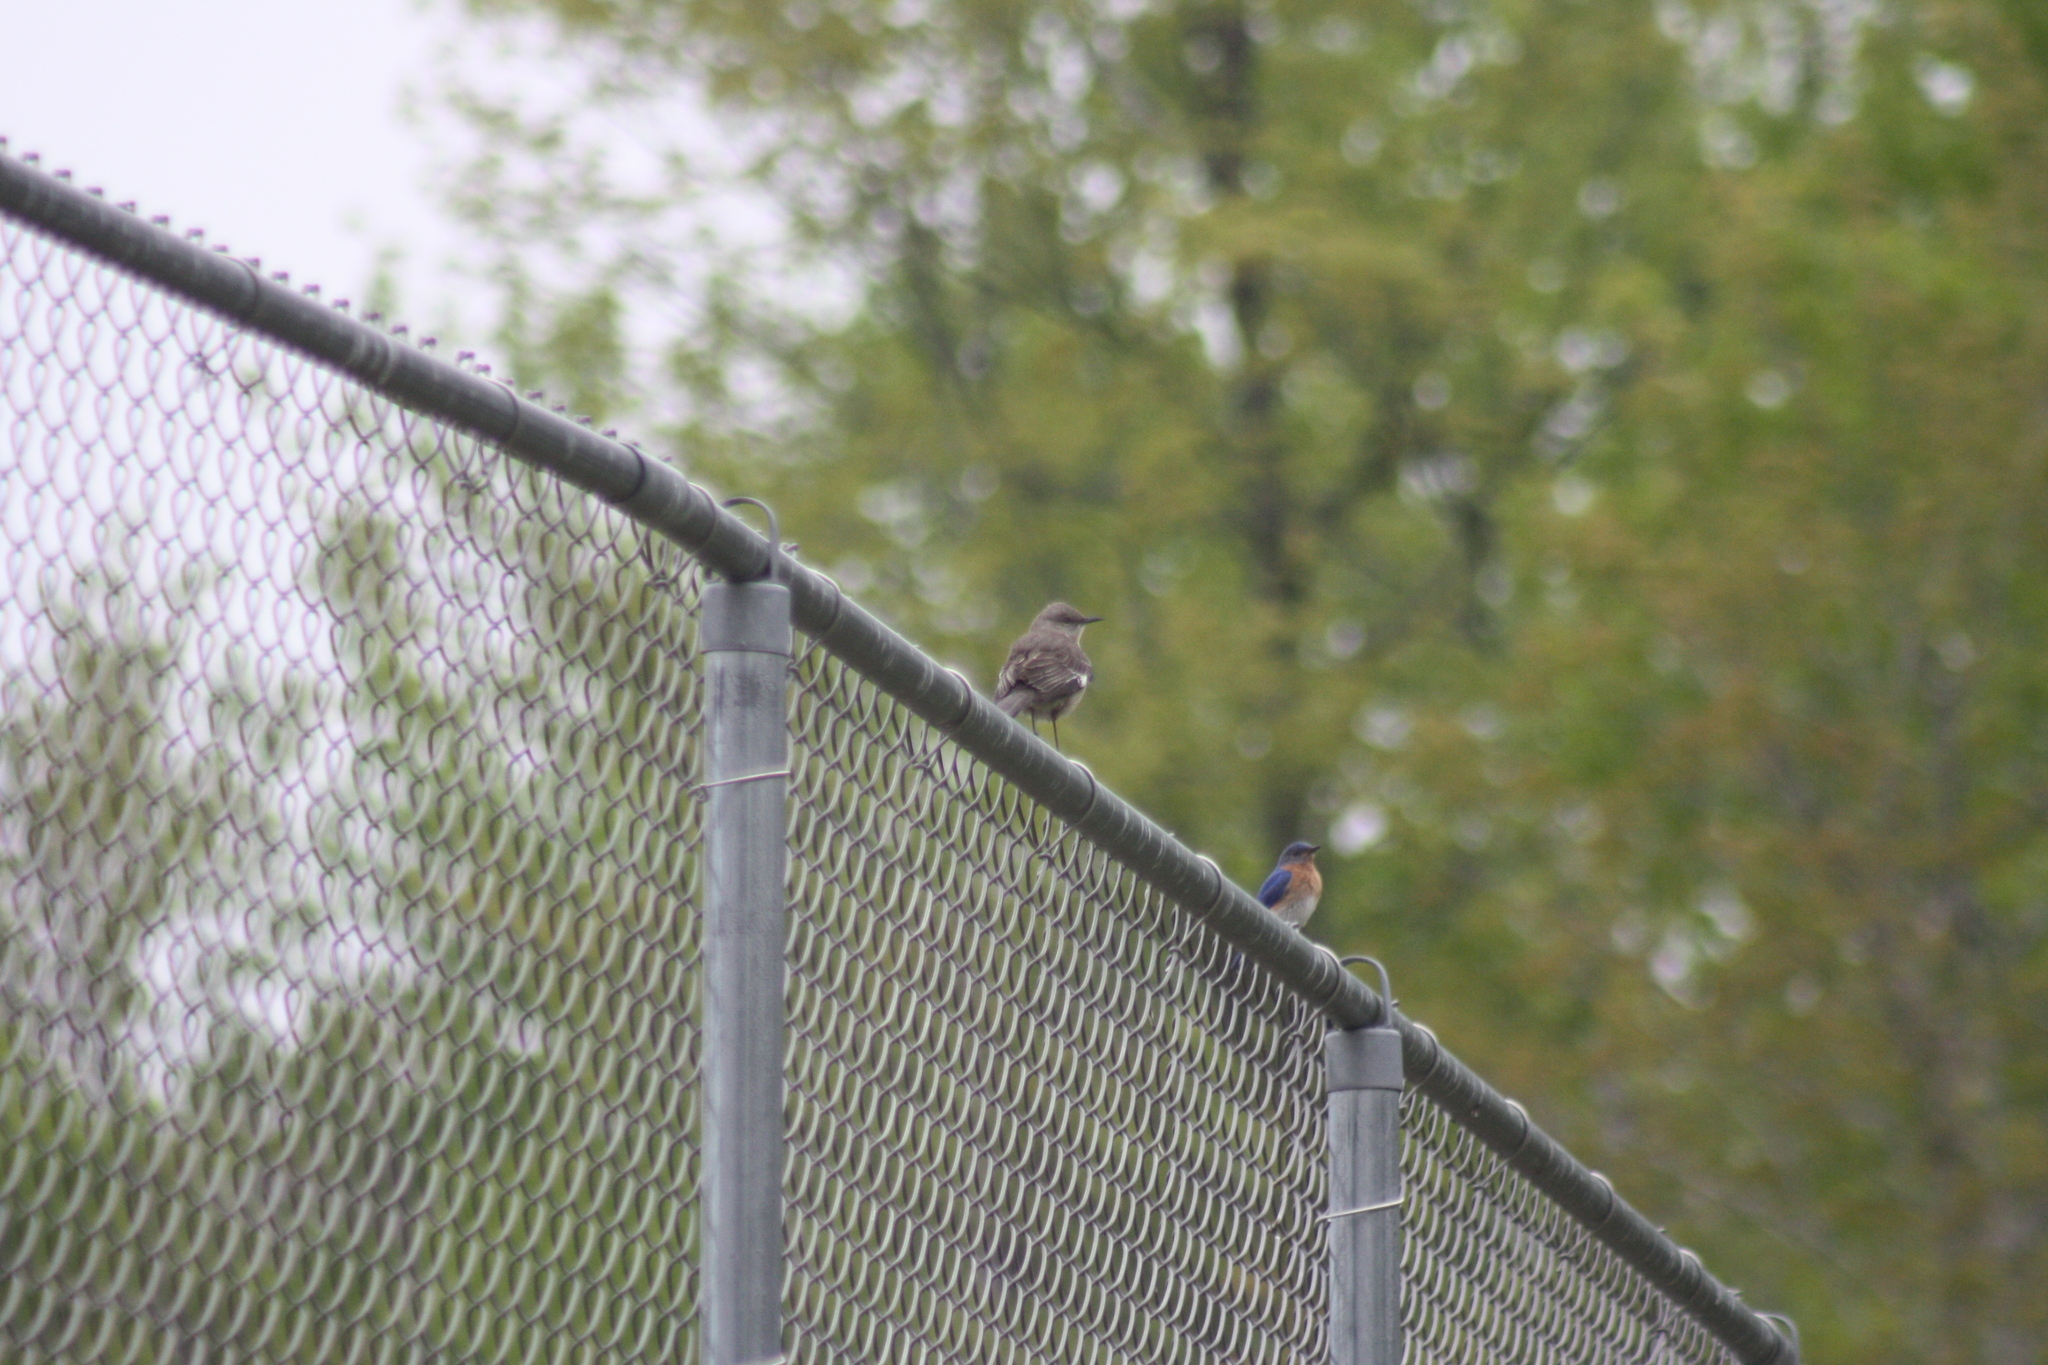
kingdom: Animalia
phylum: Chordata
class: Aves
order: Passeriformes
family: Mimidae
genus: Mimus
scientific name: Mimus polyglottos
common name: Northern mockingbird
